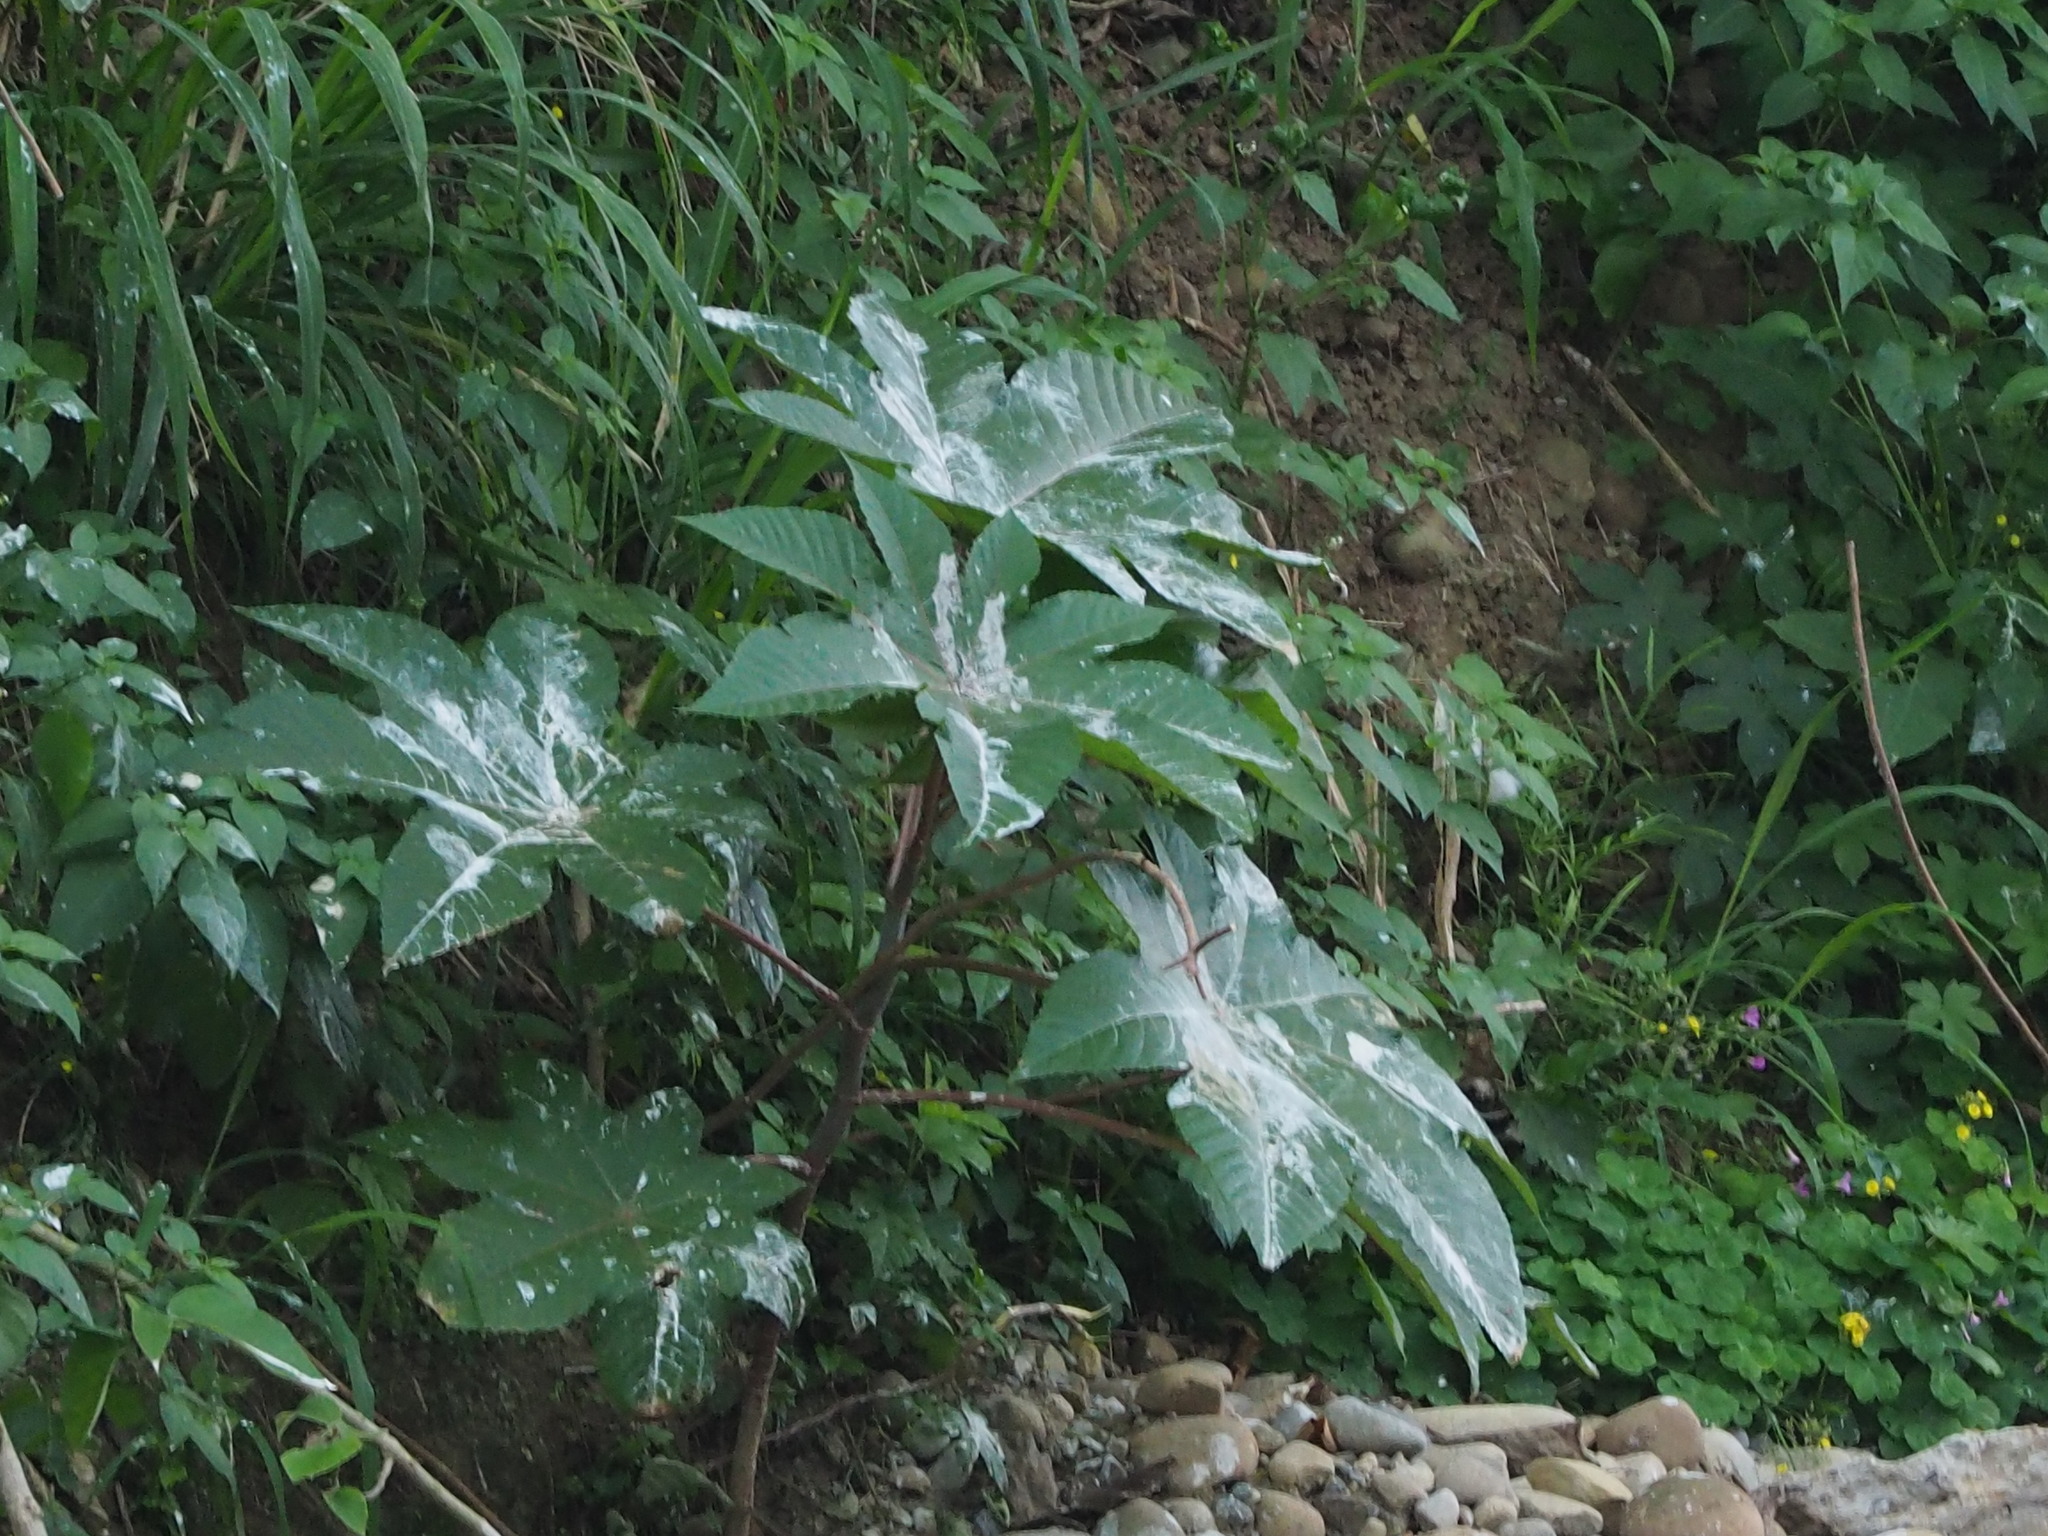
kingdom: Plantae
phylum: Tracheophyta
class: Magnoliopsida
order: Malpighiales
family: Euphorbiaceae
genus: Ricinus
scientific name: Ricinus communis
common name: Castor-oil-plant
